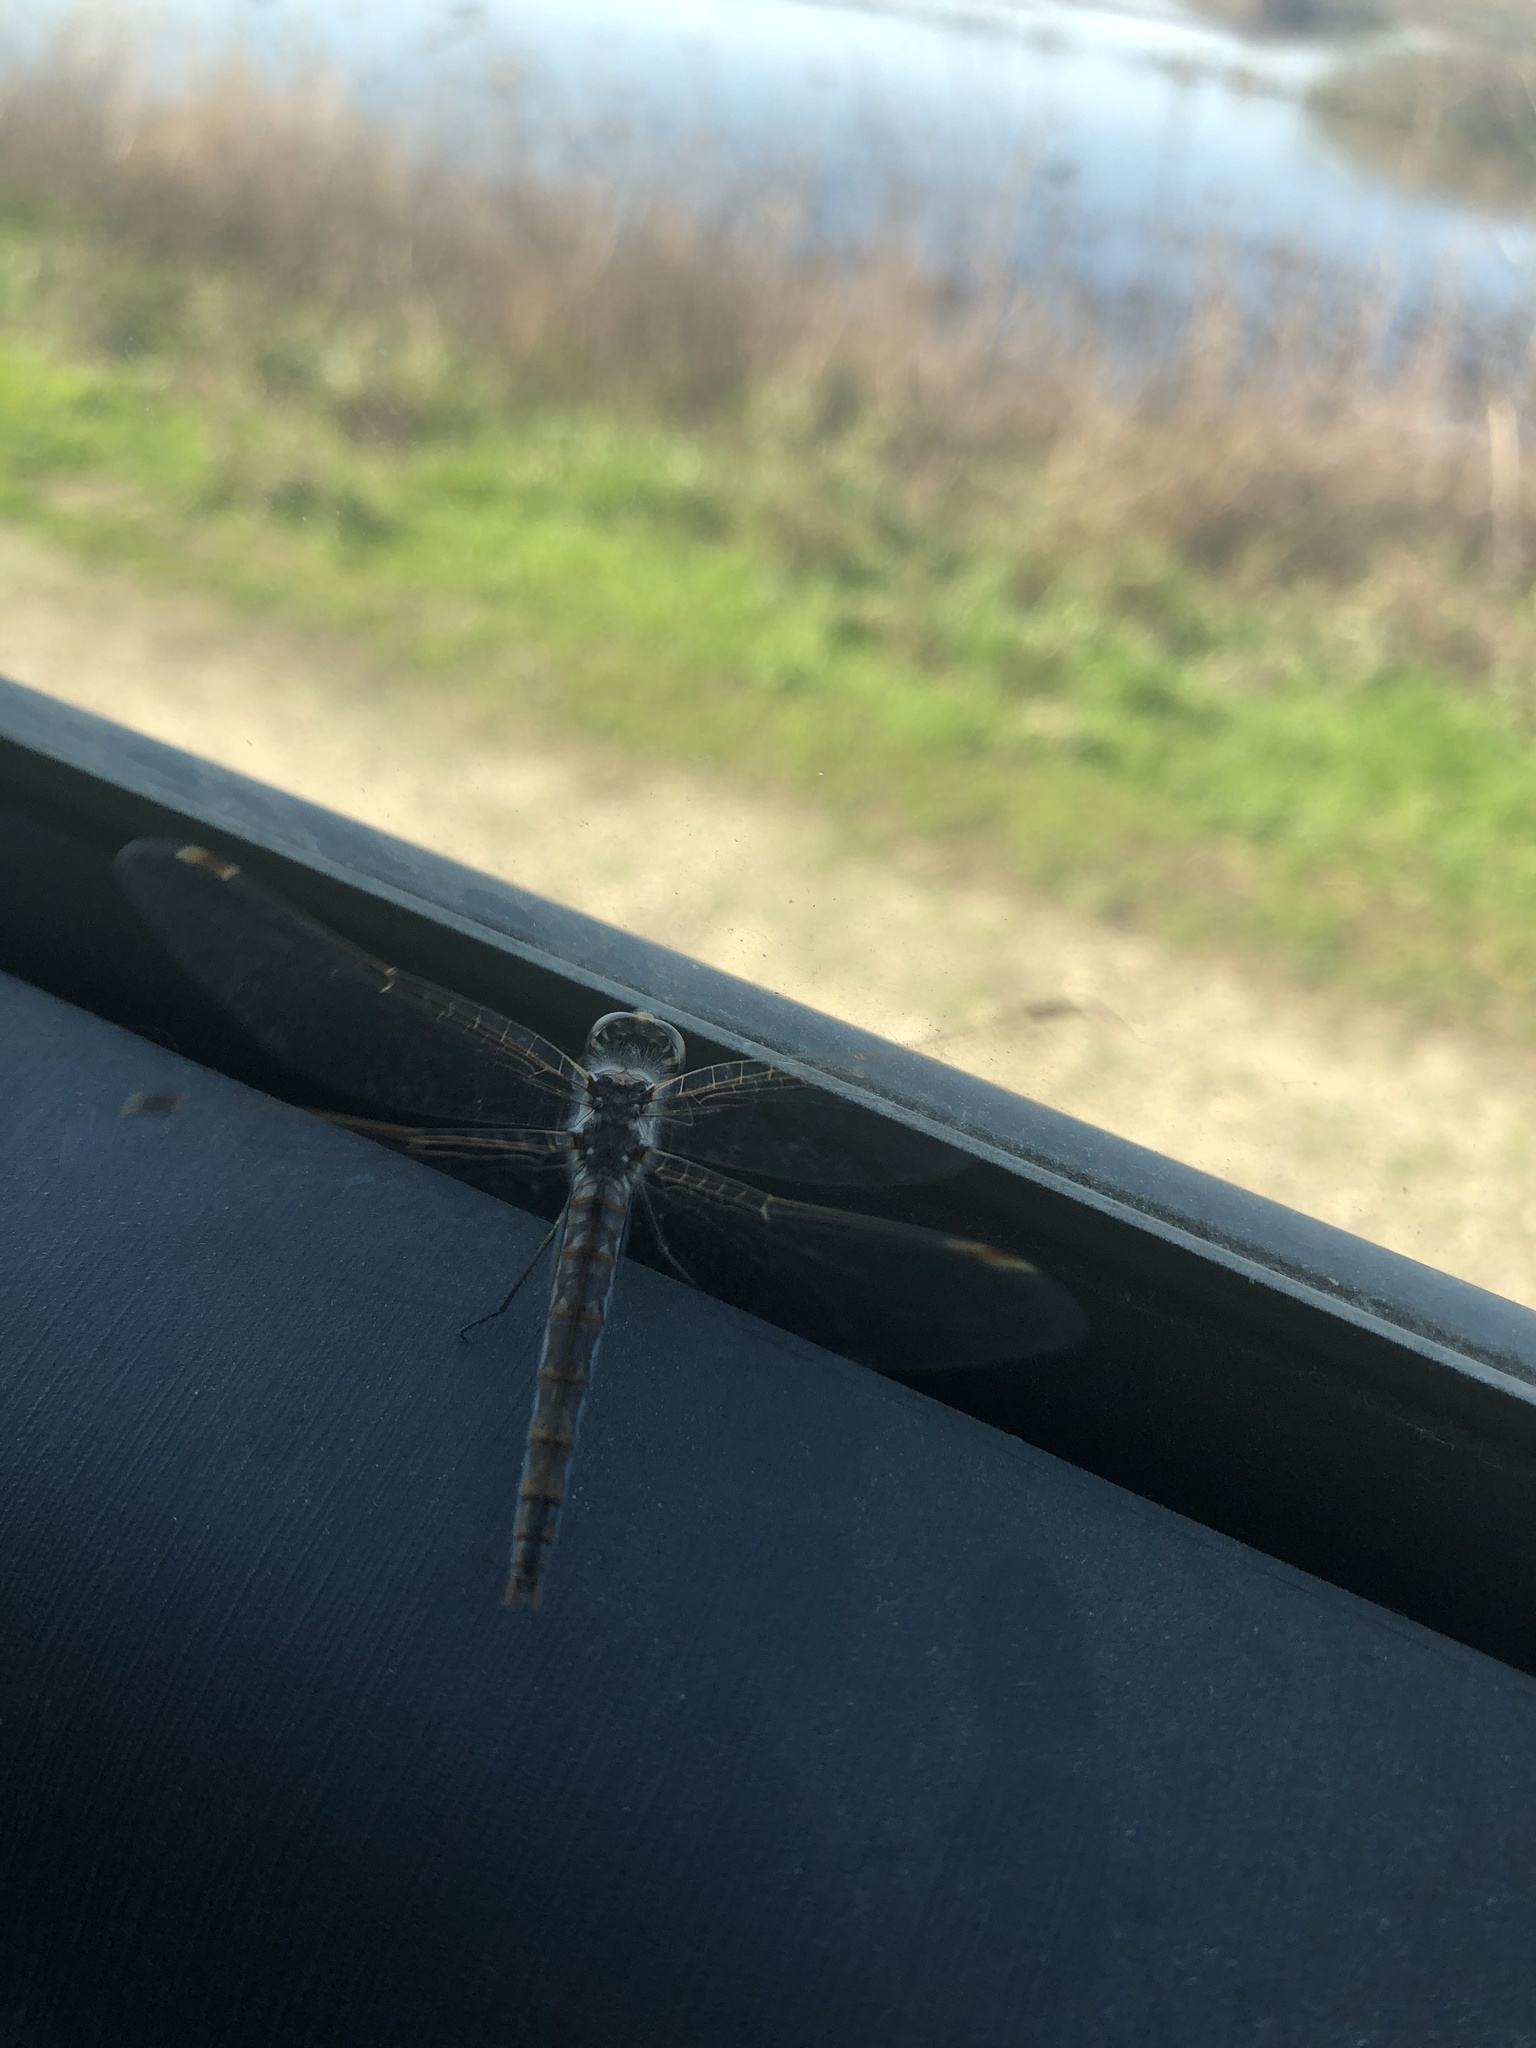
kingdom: Animalia
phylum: Arthropoda
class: Insecta
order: Odonata
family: Libellulidae
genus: Sympetrum
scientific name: Sympetrum corruptum
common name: Variegated meadowhawk
